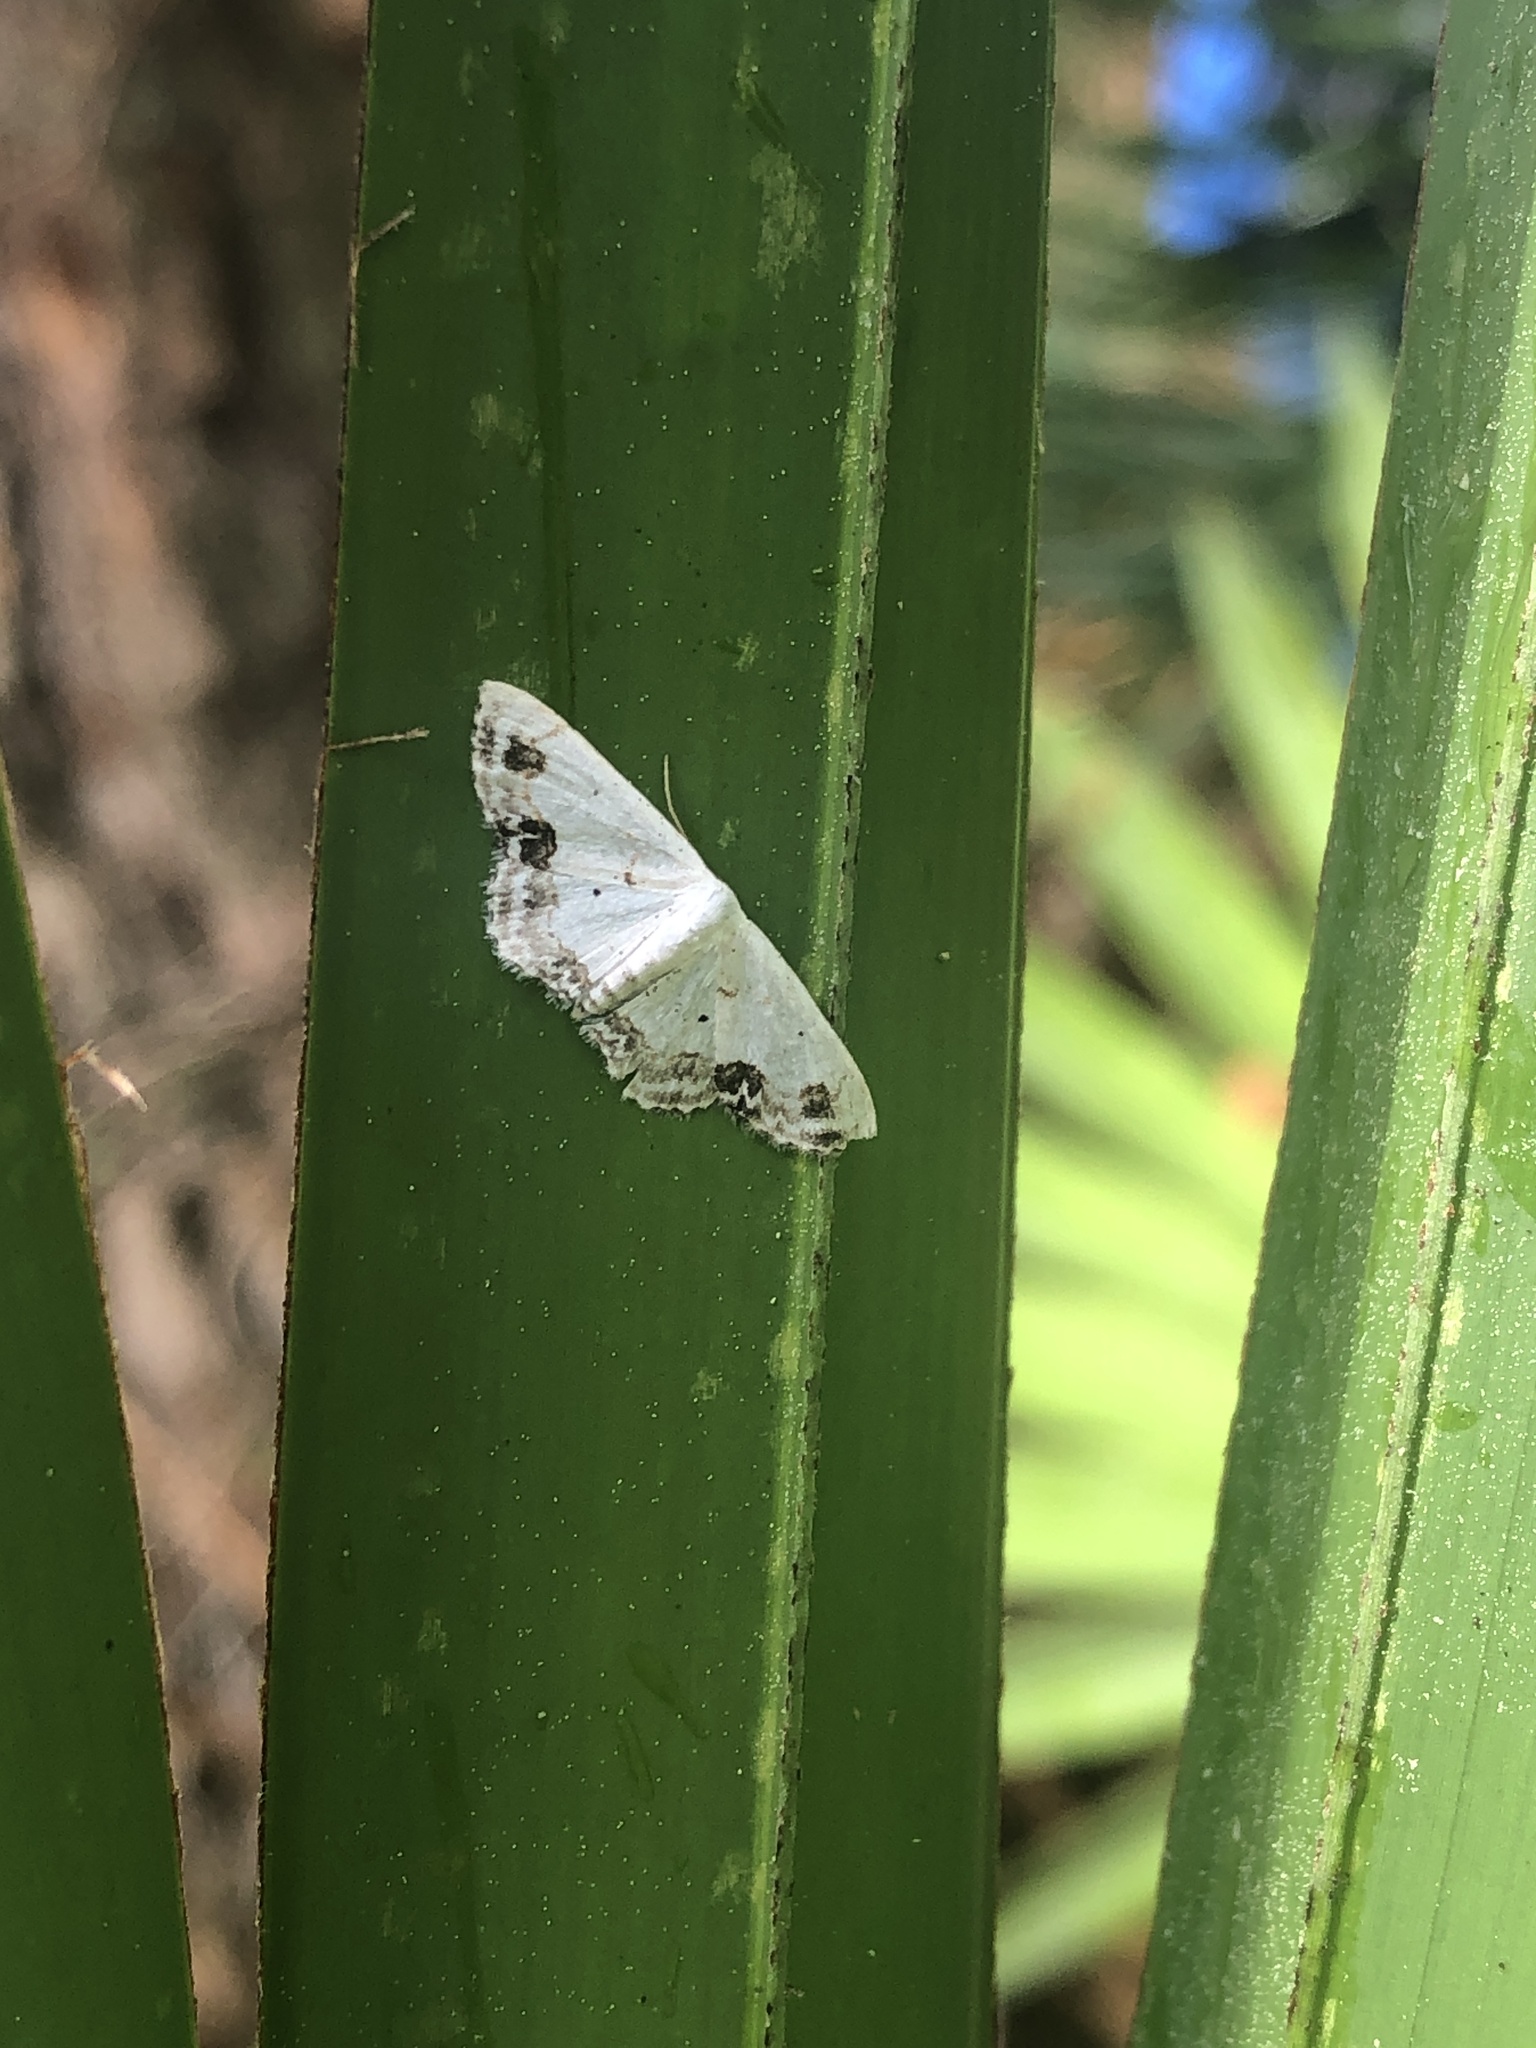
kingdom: Animalia
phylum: Arthropoda
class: Insecta
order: Lepidoptera
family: Geometridae
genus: Scopula
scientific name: Scopula lautaria
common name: Small frosted wave moth
